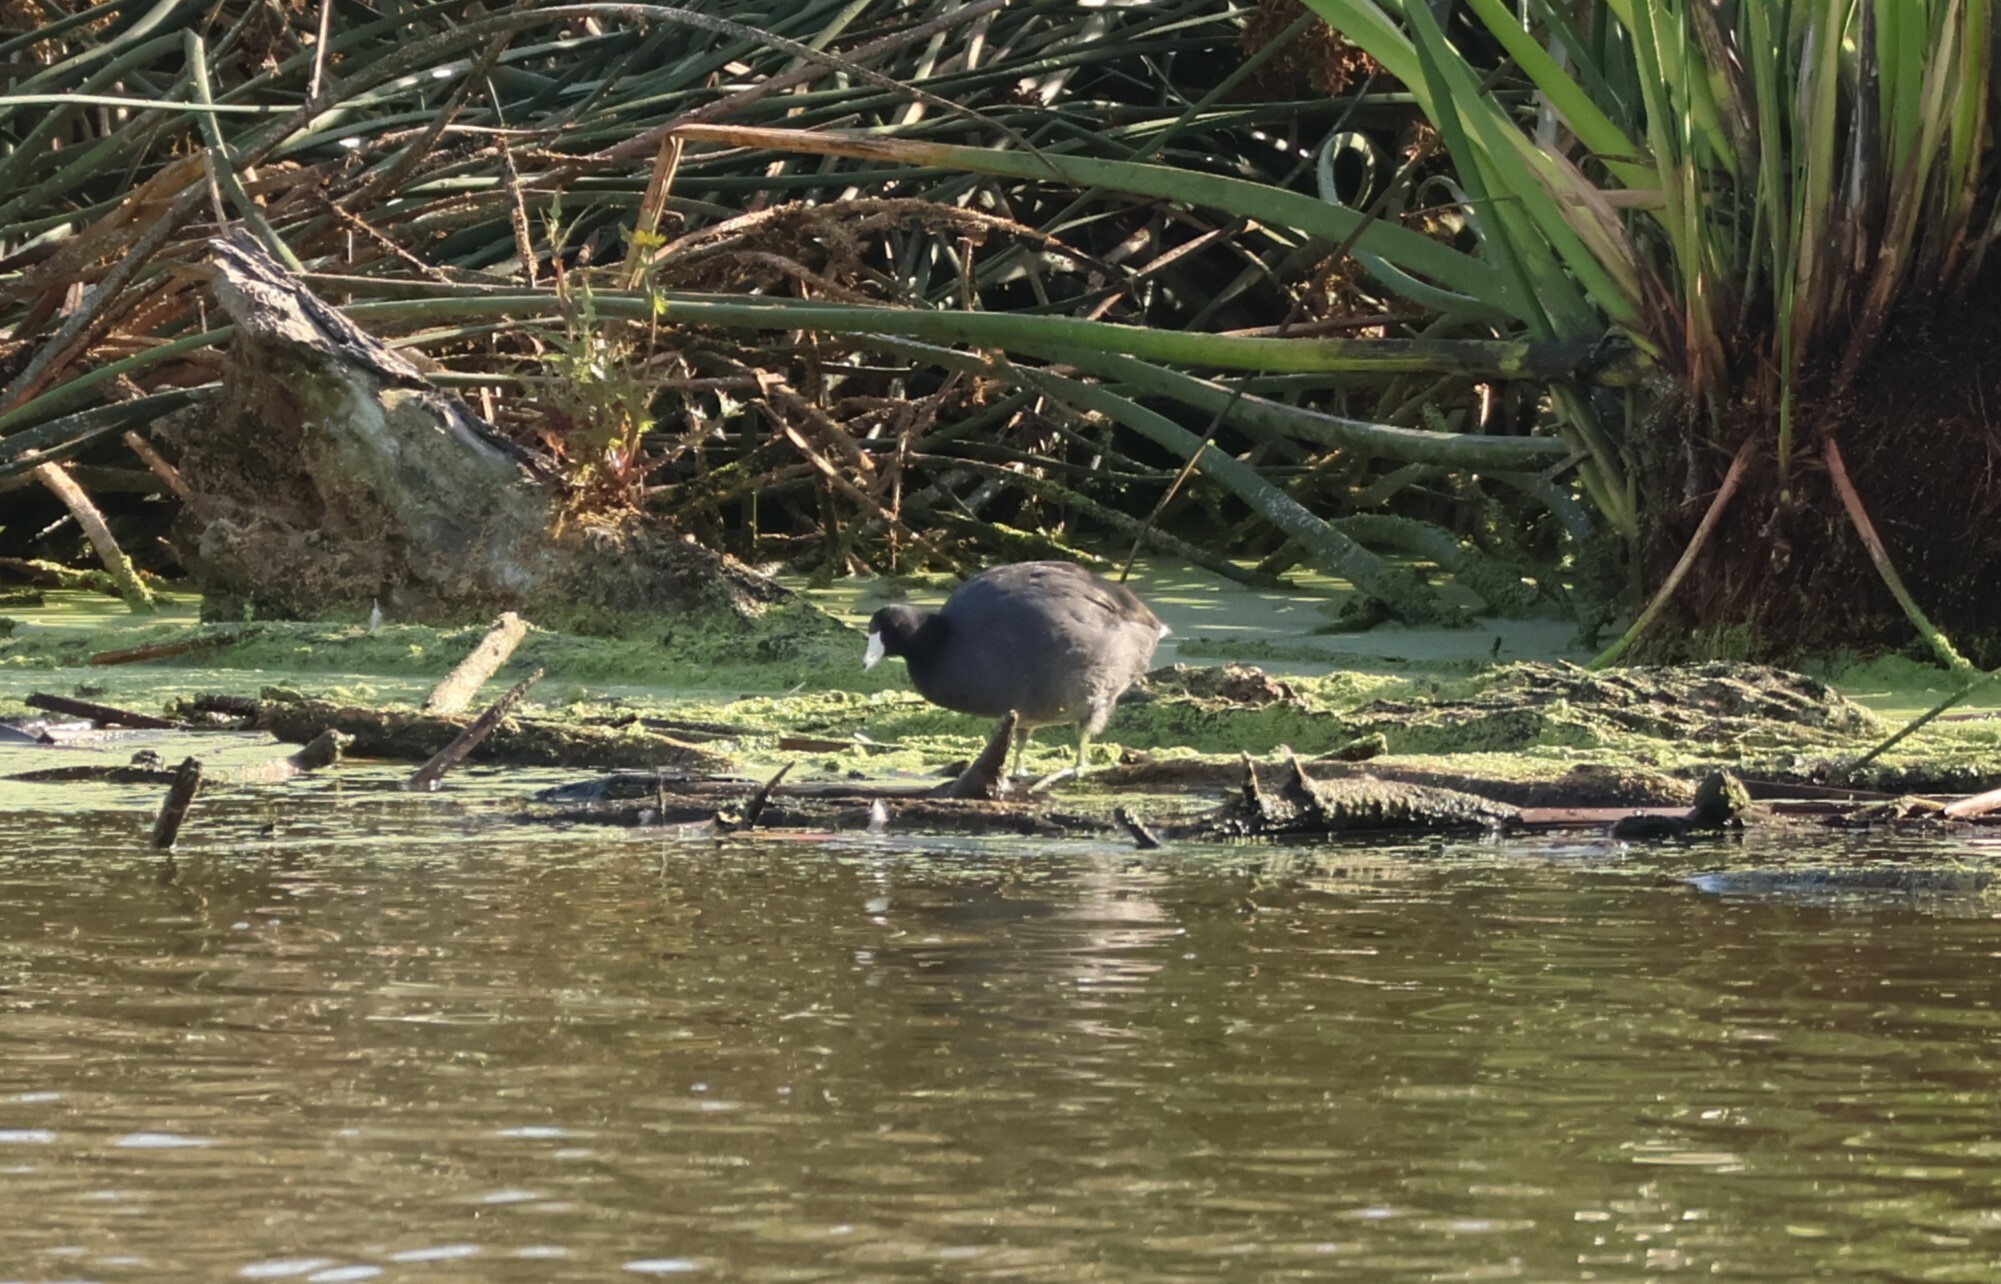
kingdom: Animalia
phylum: Chordata
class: Aves
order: Gruiformes
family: Rallidae
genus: Fulica
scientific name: Fulica americana
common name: American coot
